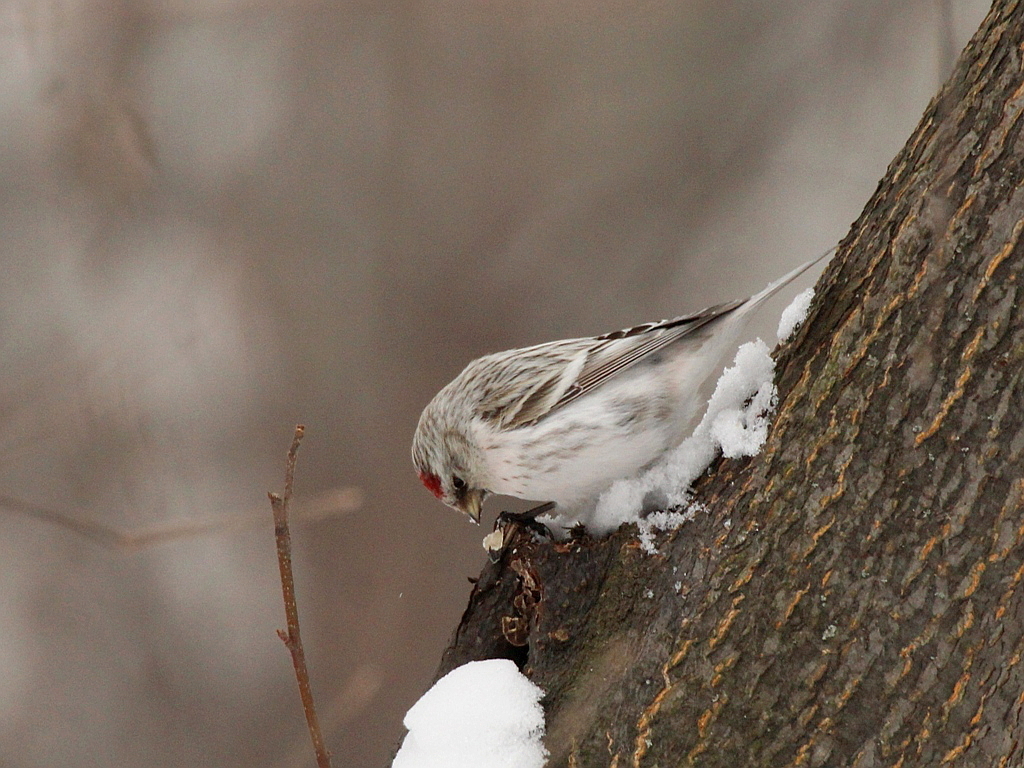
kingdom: Animalia
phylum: Chordata
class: Aves
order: Passeriformes
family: Fringillidae
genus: Acanthis
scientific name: Acanthis hornemanni
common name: Arctic redpoll
